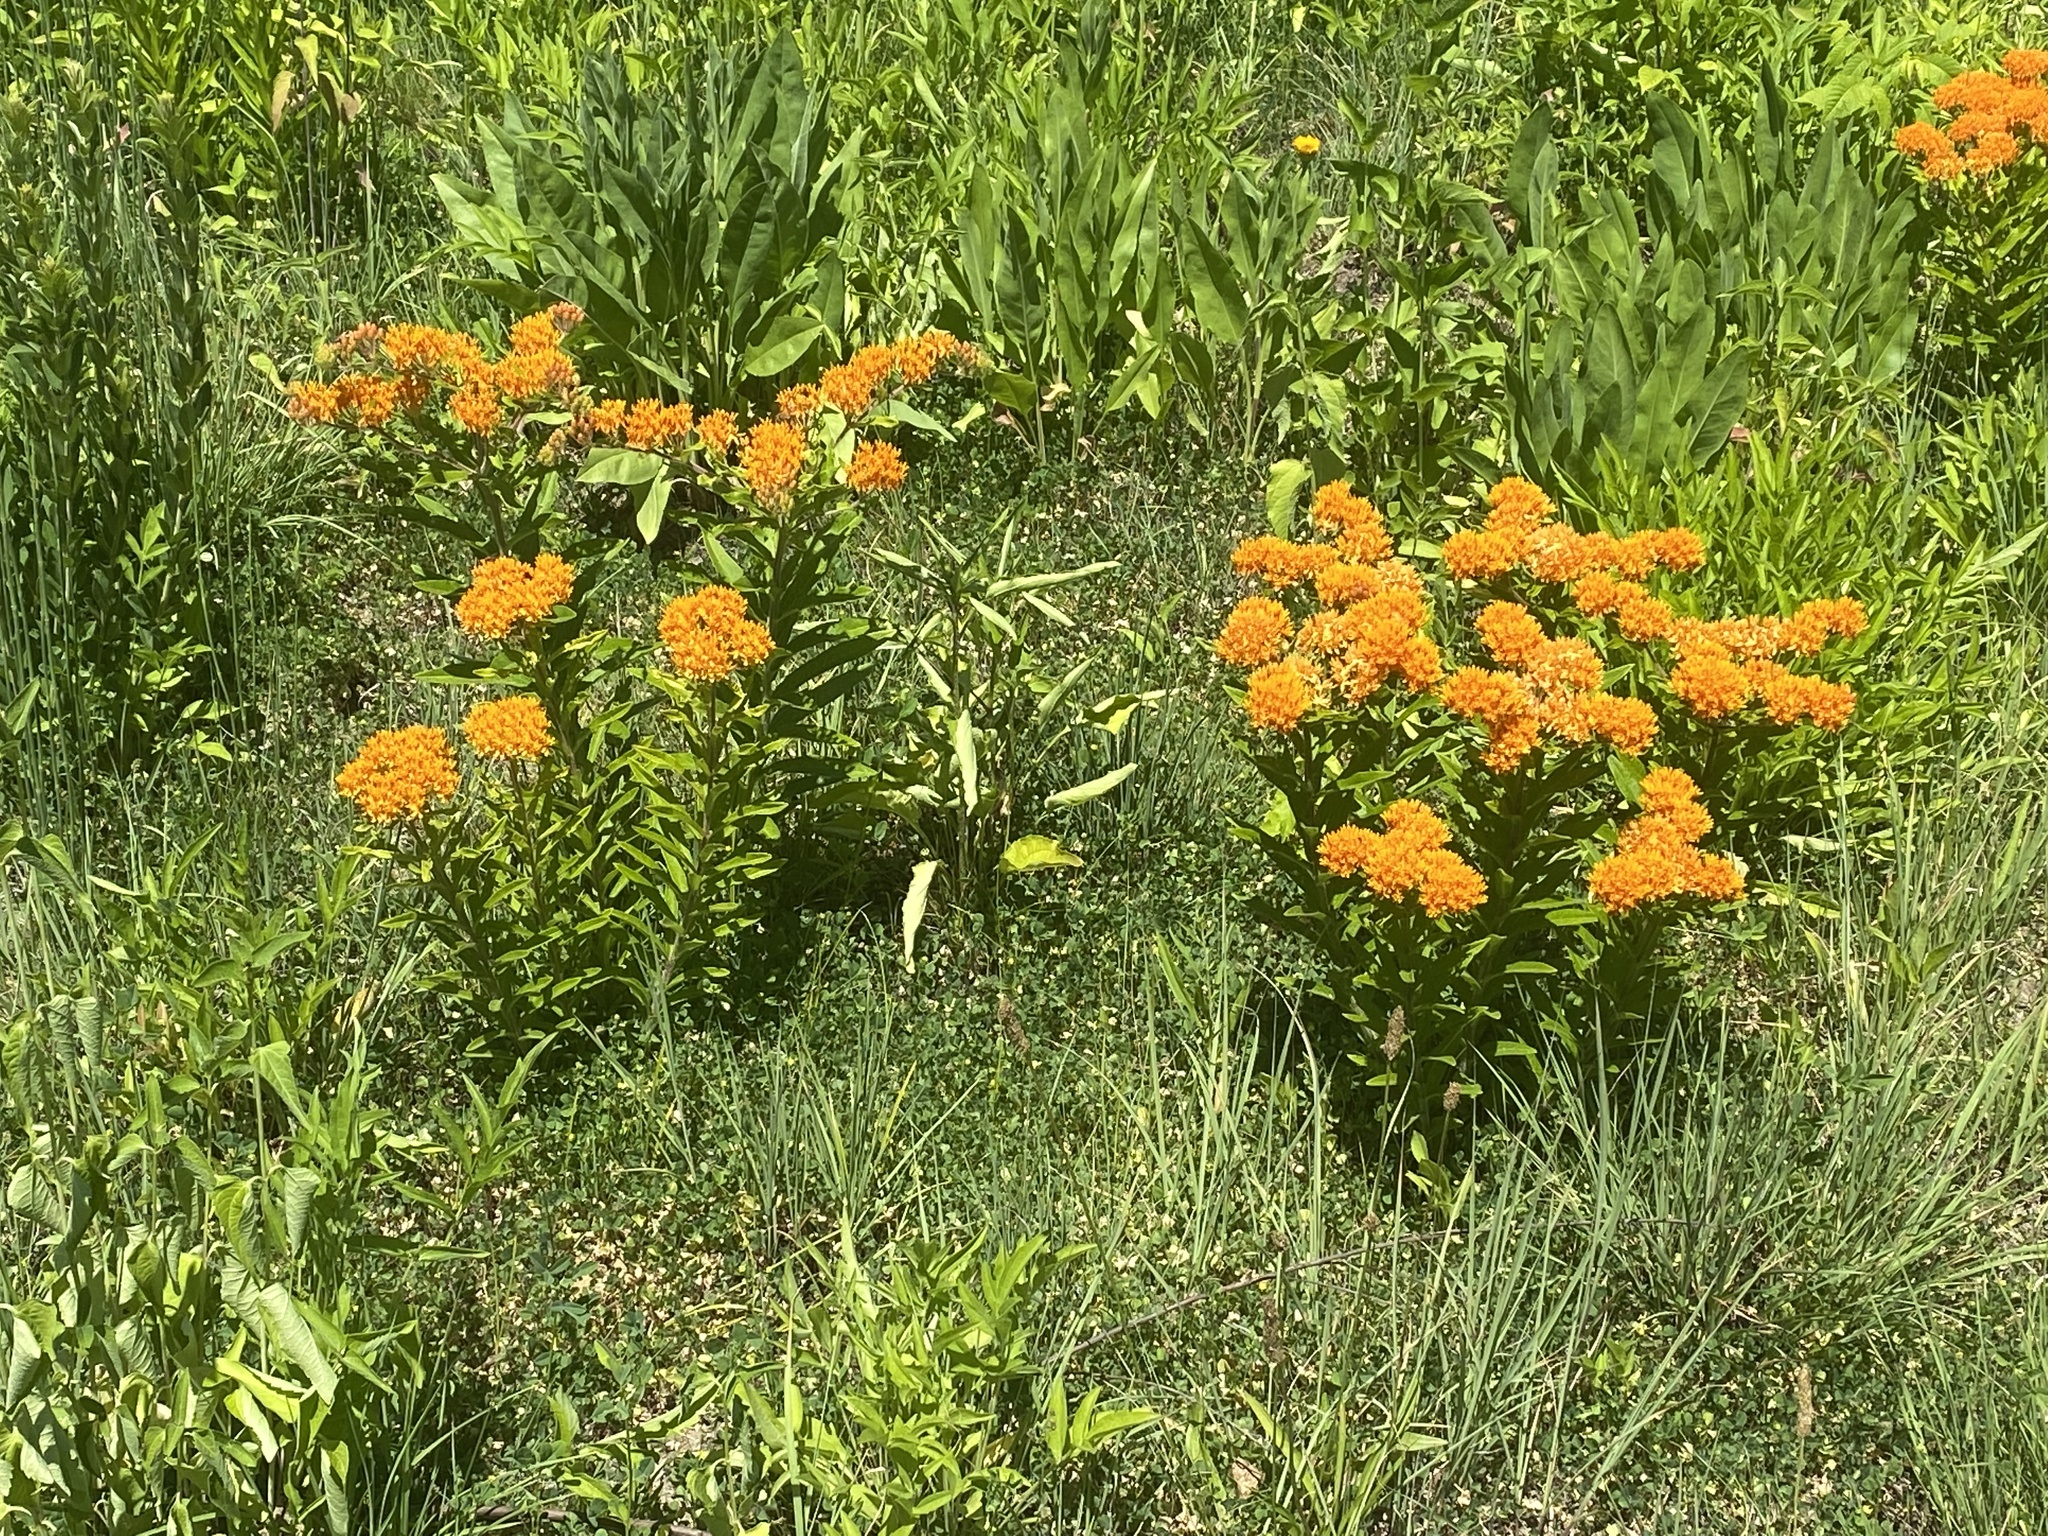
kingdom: Plantae
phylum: Tracheophyta
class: Magnoliopsida
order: Gentianales
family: Apocynaceae
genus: Asclepias
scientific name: Asclepias tuberosa
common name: Butterfly milkweed
